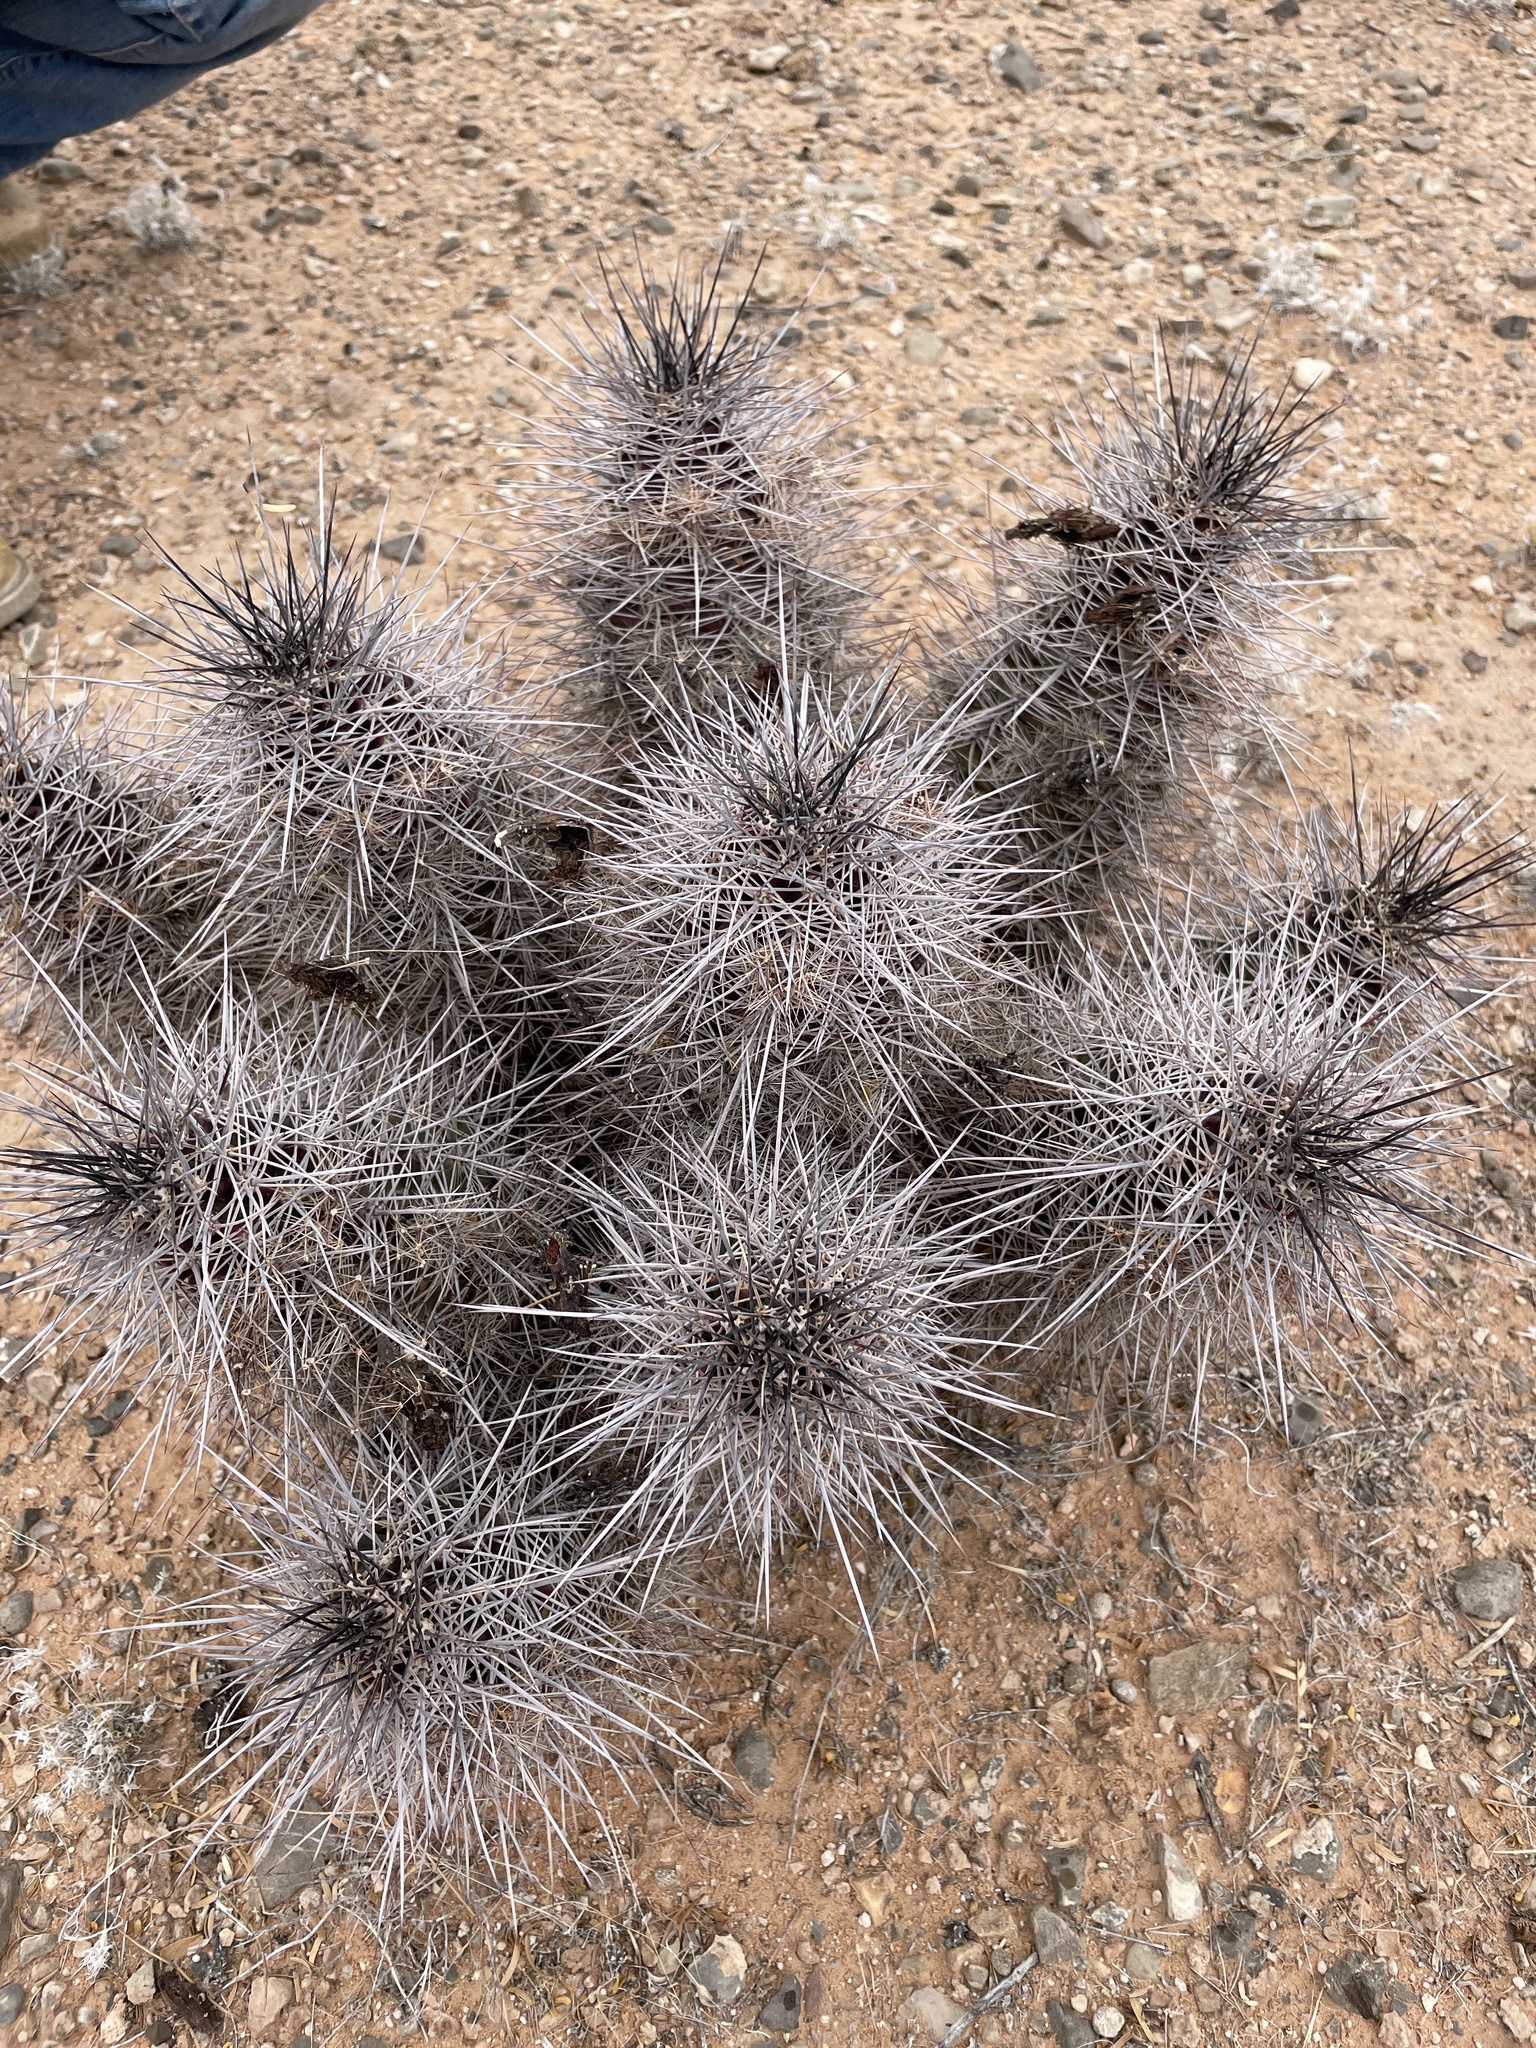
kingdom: Plantae
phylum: Tracheophyta
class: Magnoliopsida
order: Caryophyllales
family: Cactaceae
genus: Echinocereus
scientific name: Echinocereus coccineus
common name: Scarlet hedgehog cactus
